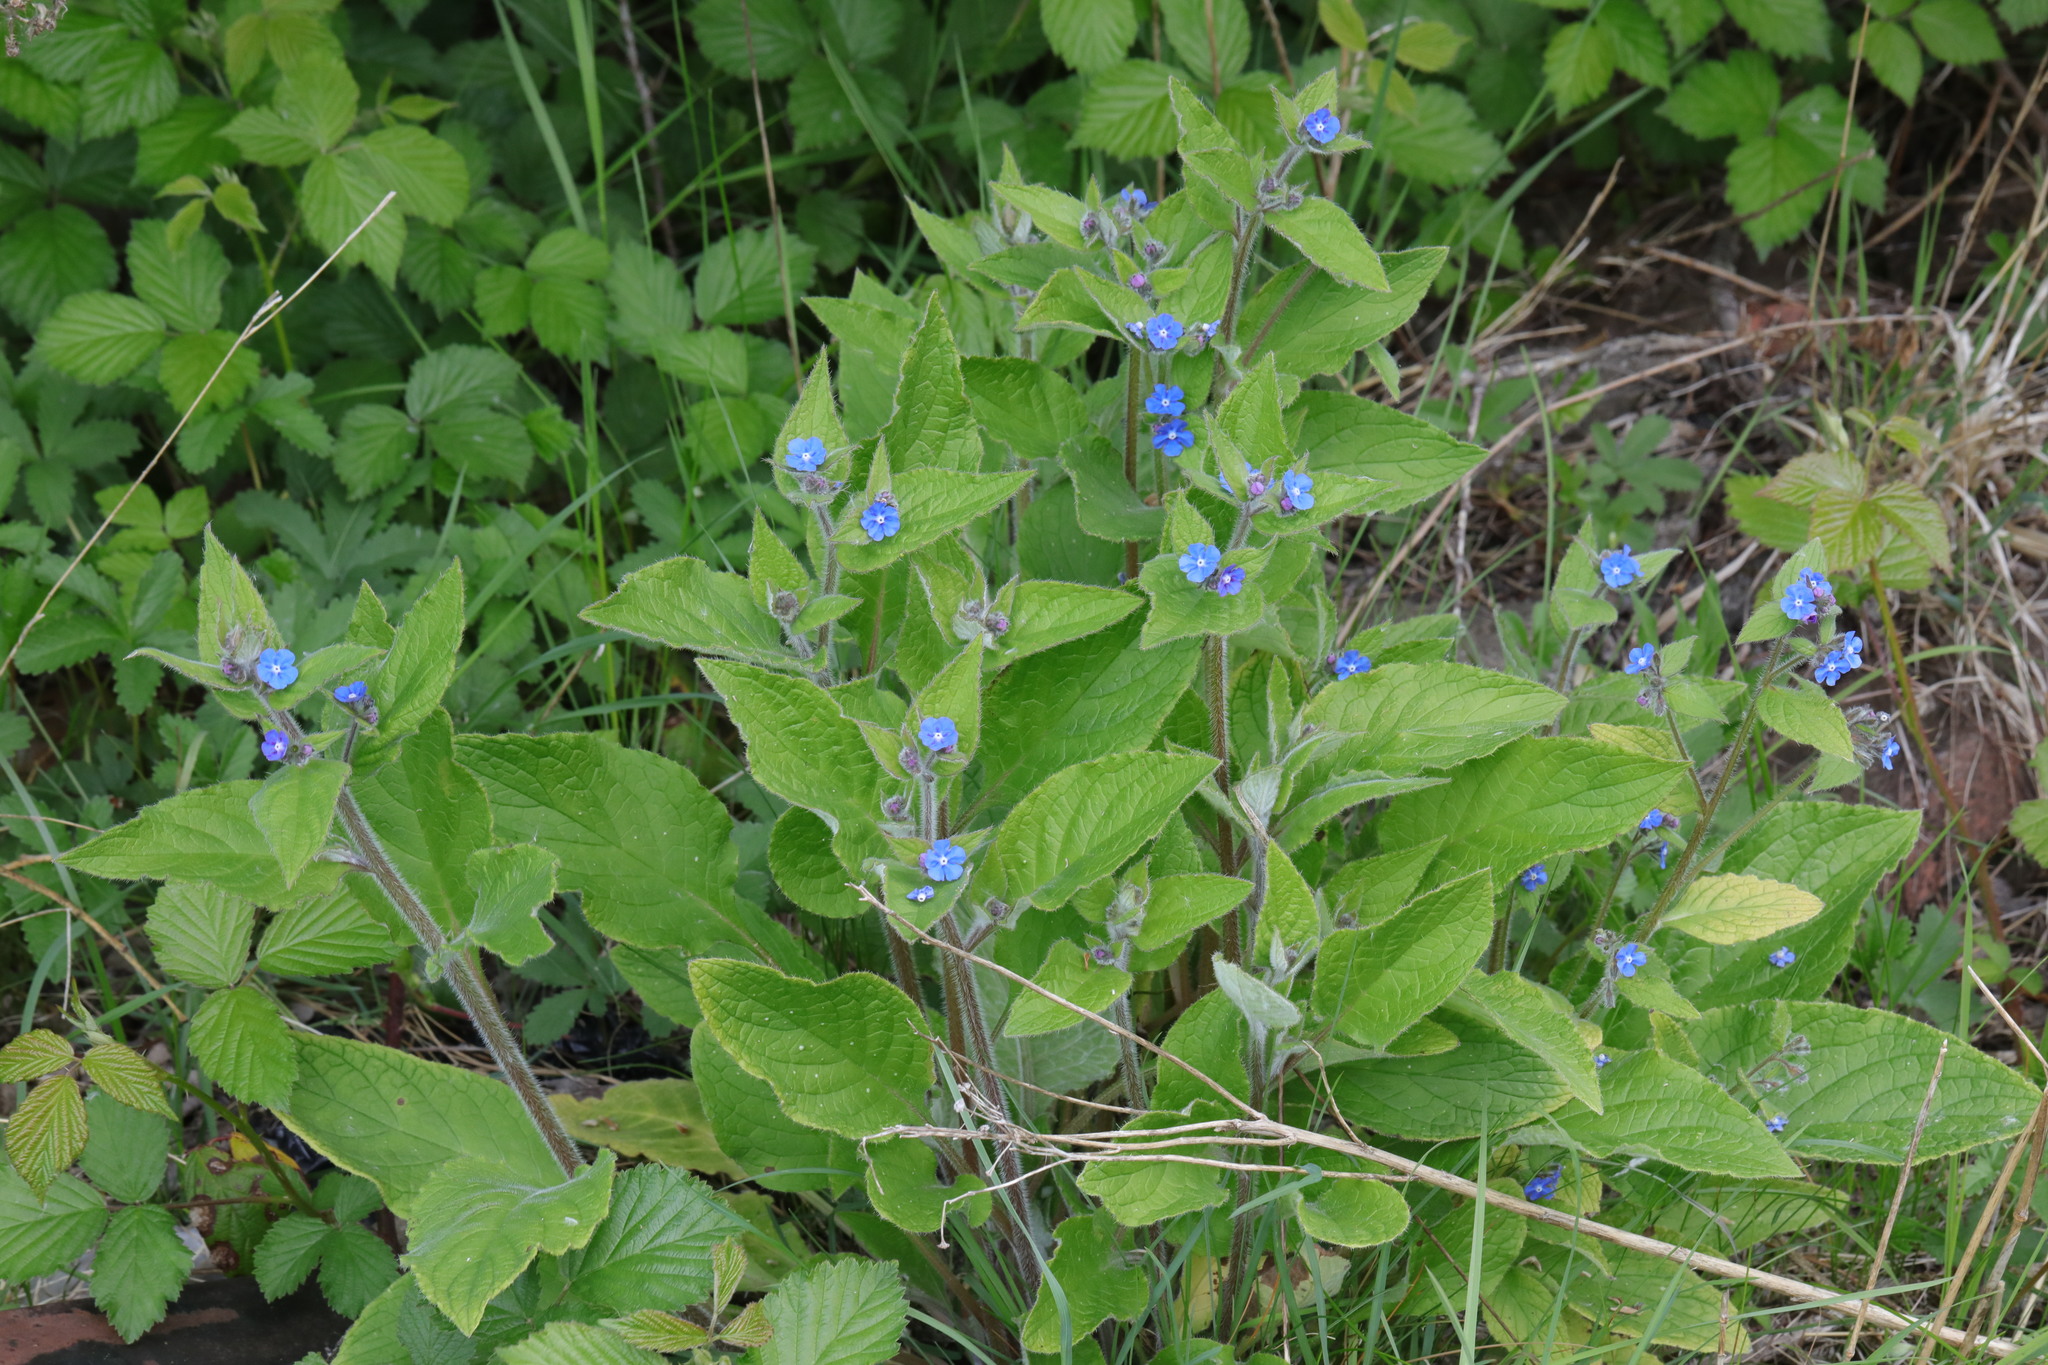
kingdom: Plantae
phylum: Tracheophyta
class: Magnoliopsida
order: Boraginales
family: Boraginaceae
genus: Pentaglottis
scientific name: Pentaglottis sempervirens
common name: Green alkanet
